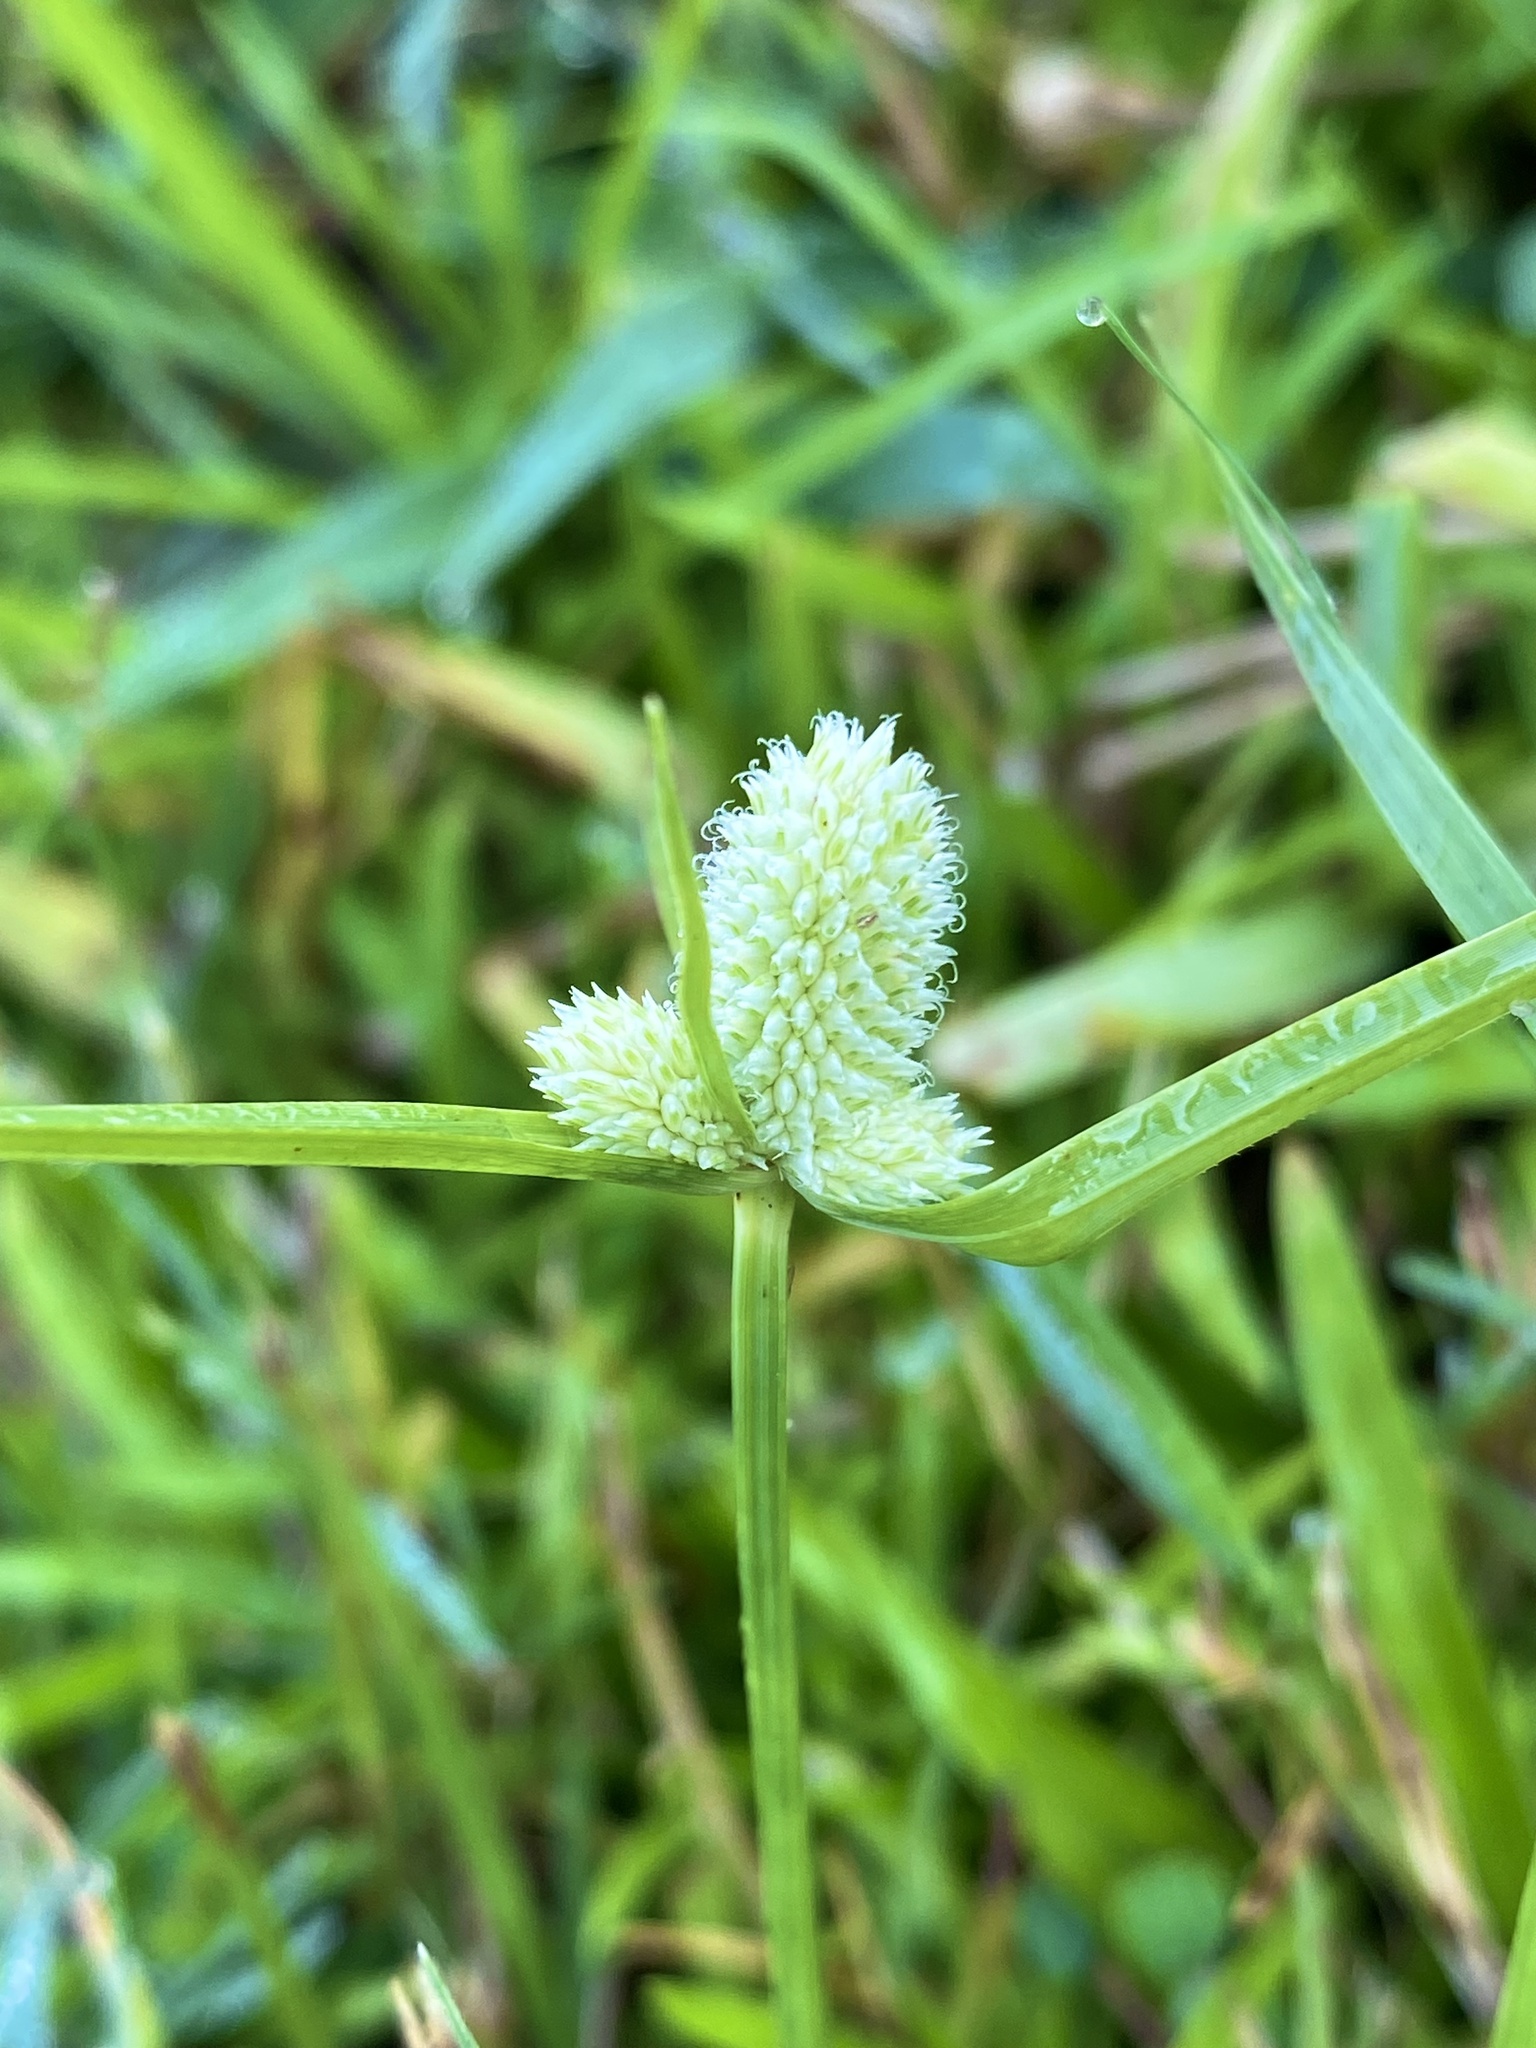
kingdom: Plantae
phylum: Tracheophyta
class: Liliopsida
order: Poales
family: Cyperaceae
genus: Cyperus
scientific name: Cyperus sesquiflorus
